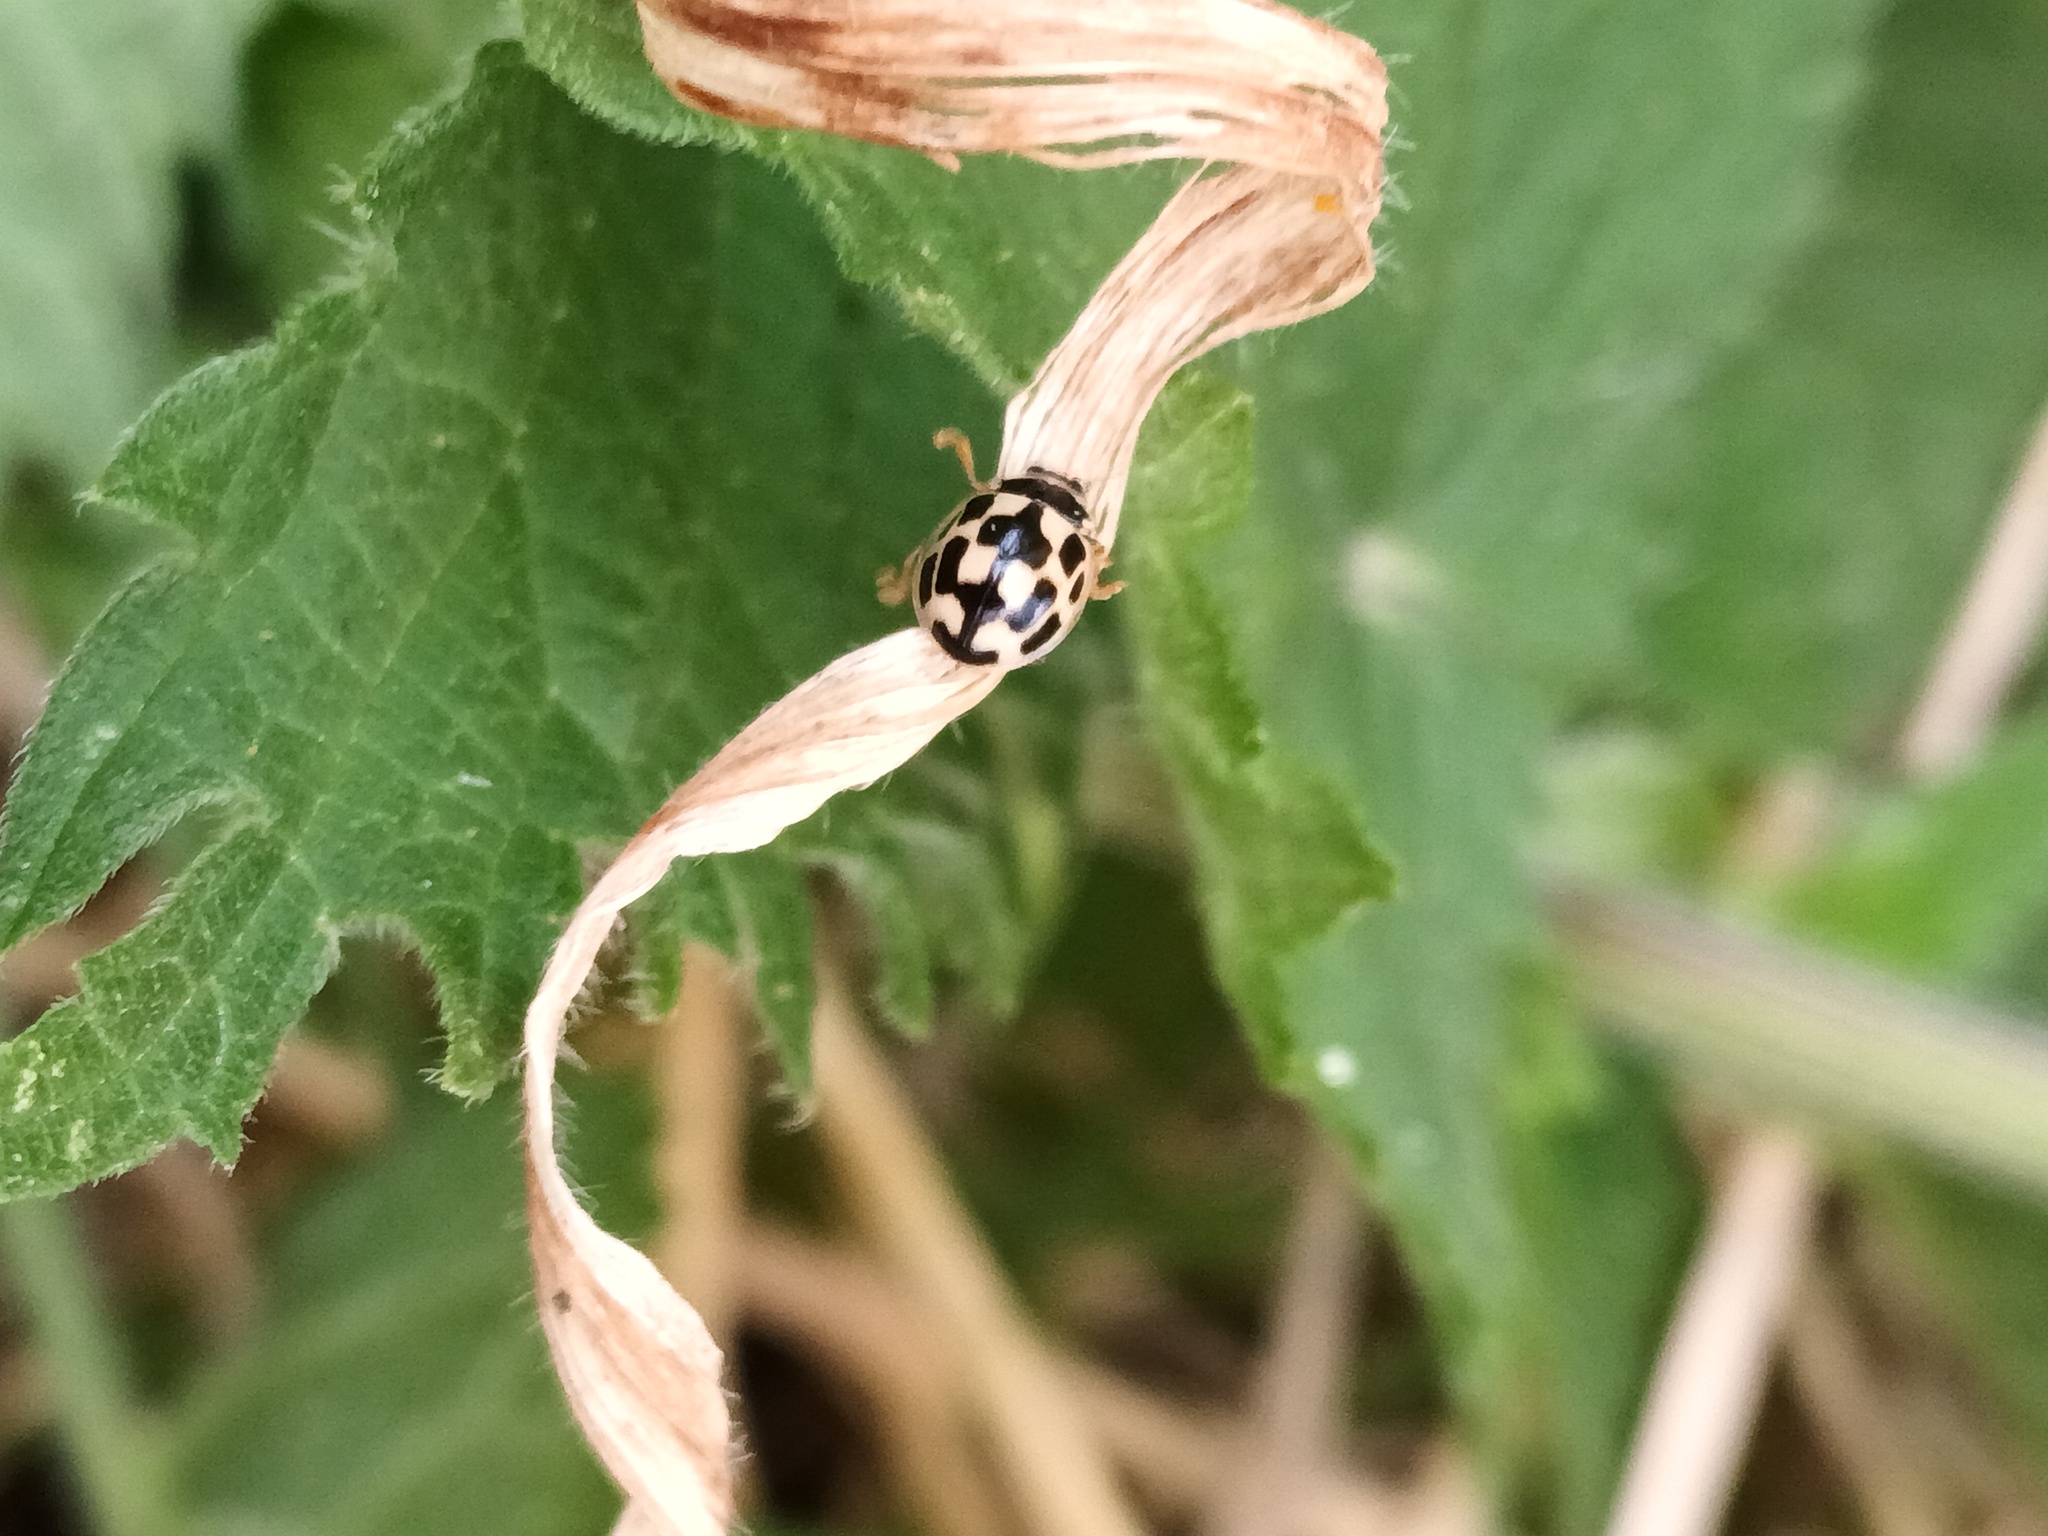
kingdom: Animalia
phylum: Arthropoda
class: Insecta
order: Coleoptera
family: Coccinellidae
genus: Propylaea
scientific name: Propylaea quatuordecimpunctata
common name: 14-spotted ladybird beetle
